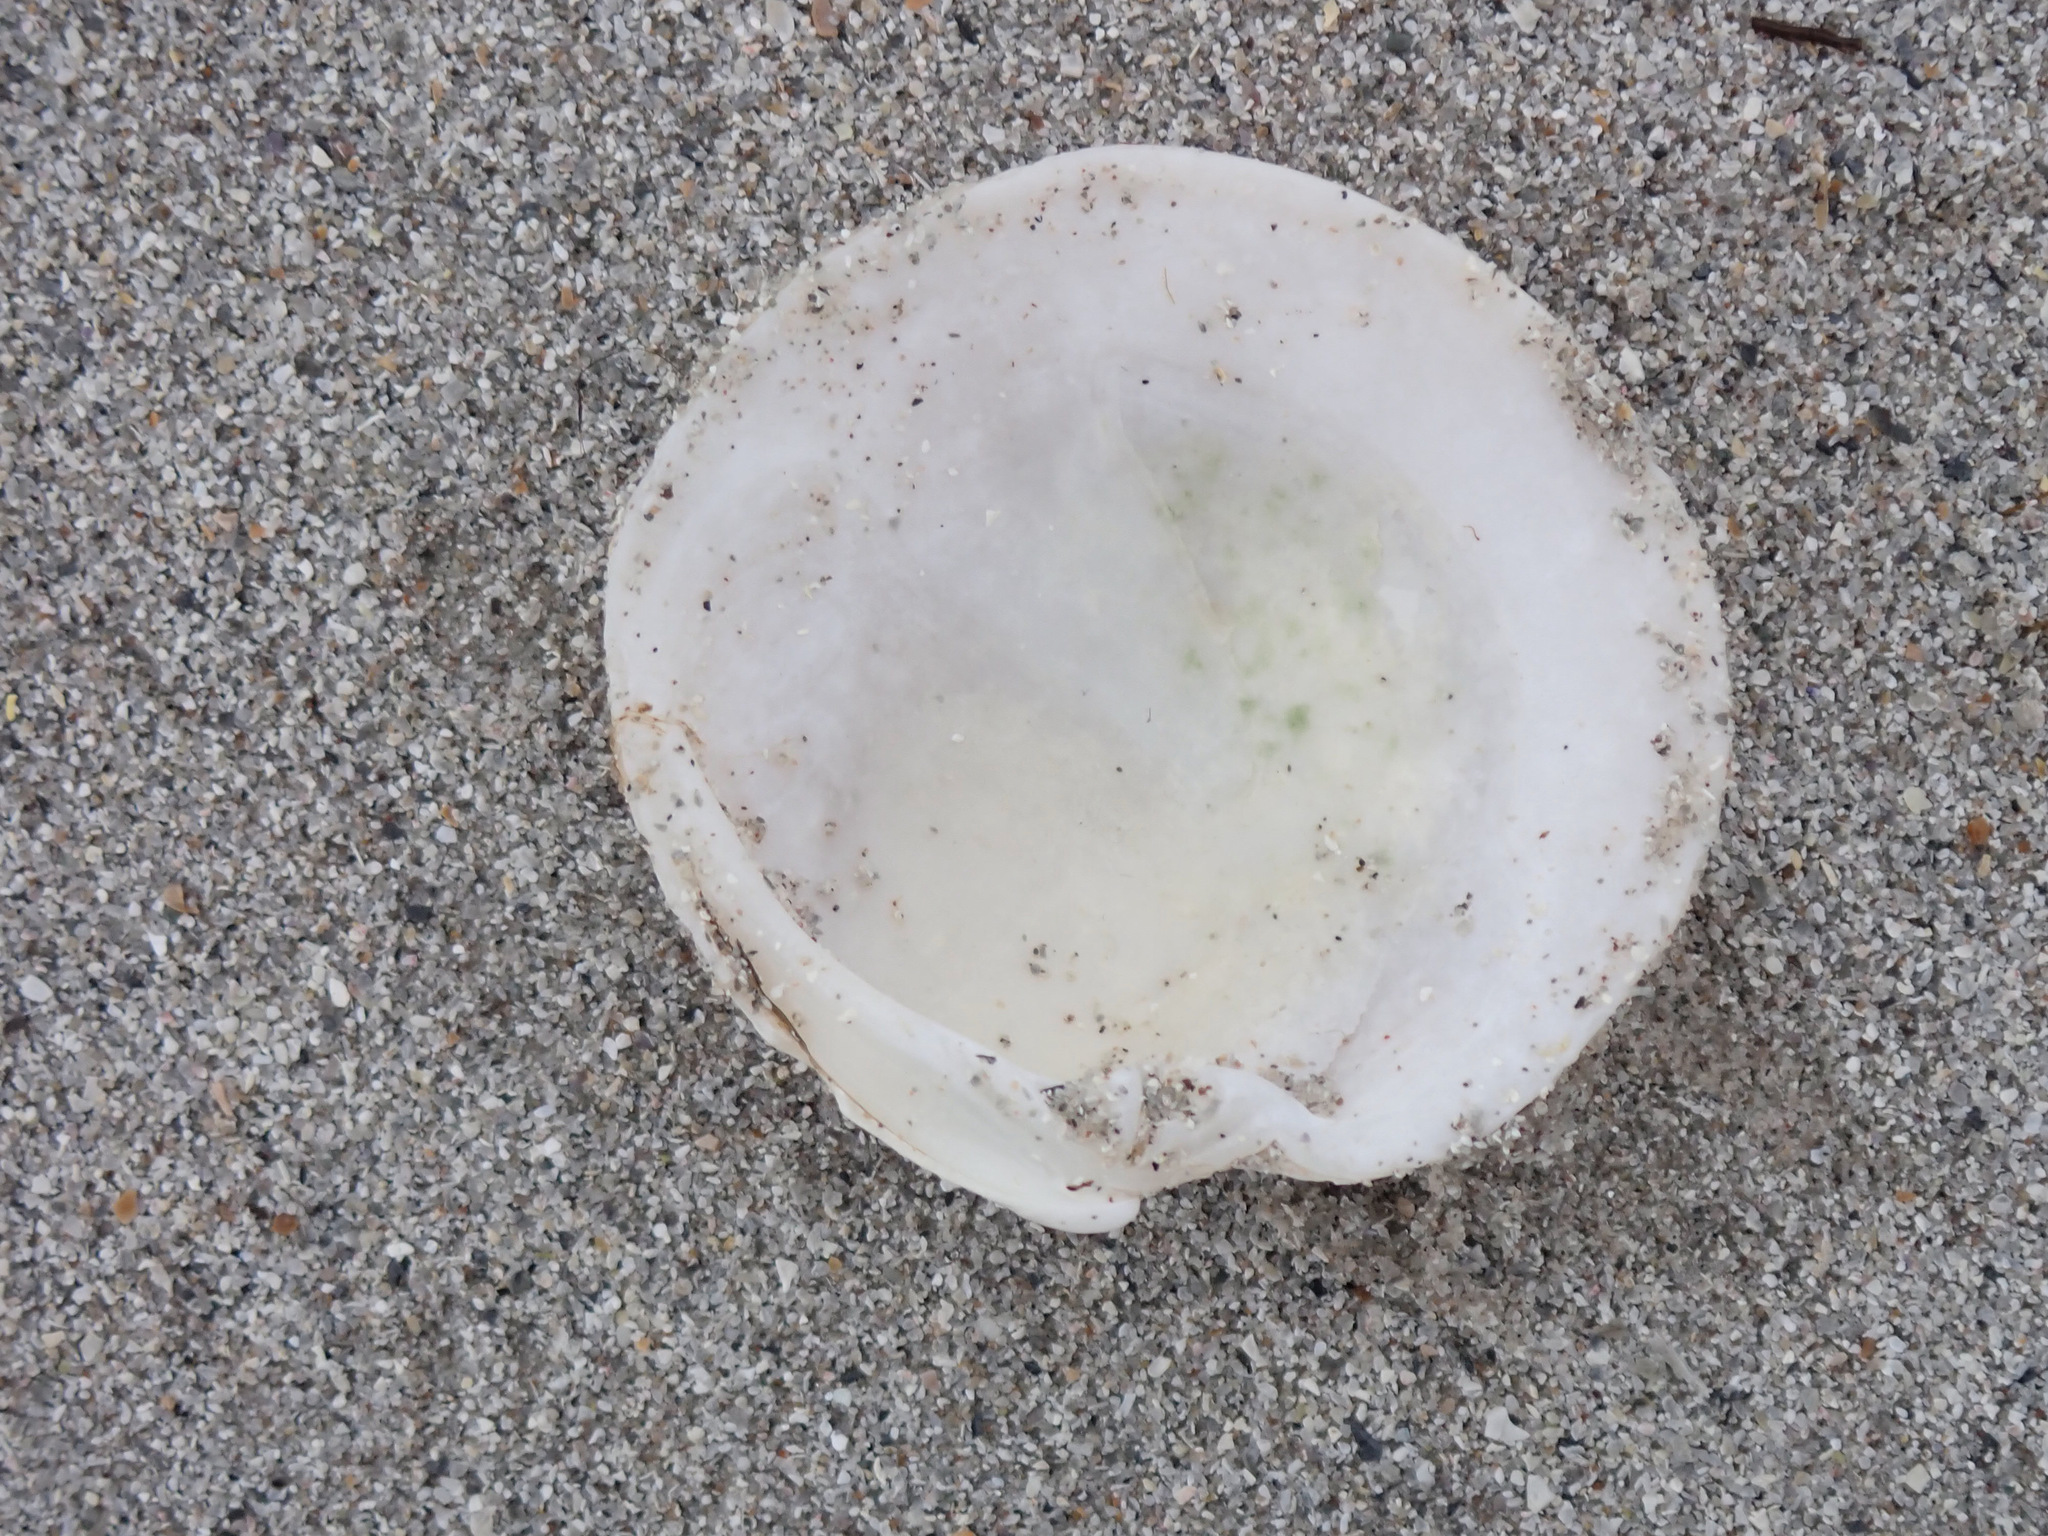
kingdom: Animalia
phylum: Mollusca
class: Bivalvia
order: Venerida
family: Veneridae
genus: Dosinia
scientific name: Dosinia exoleta
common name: Rayed artemis
